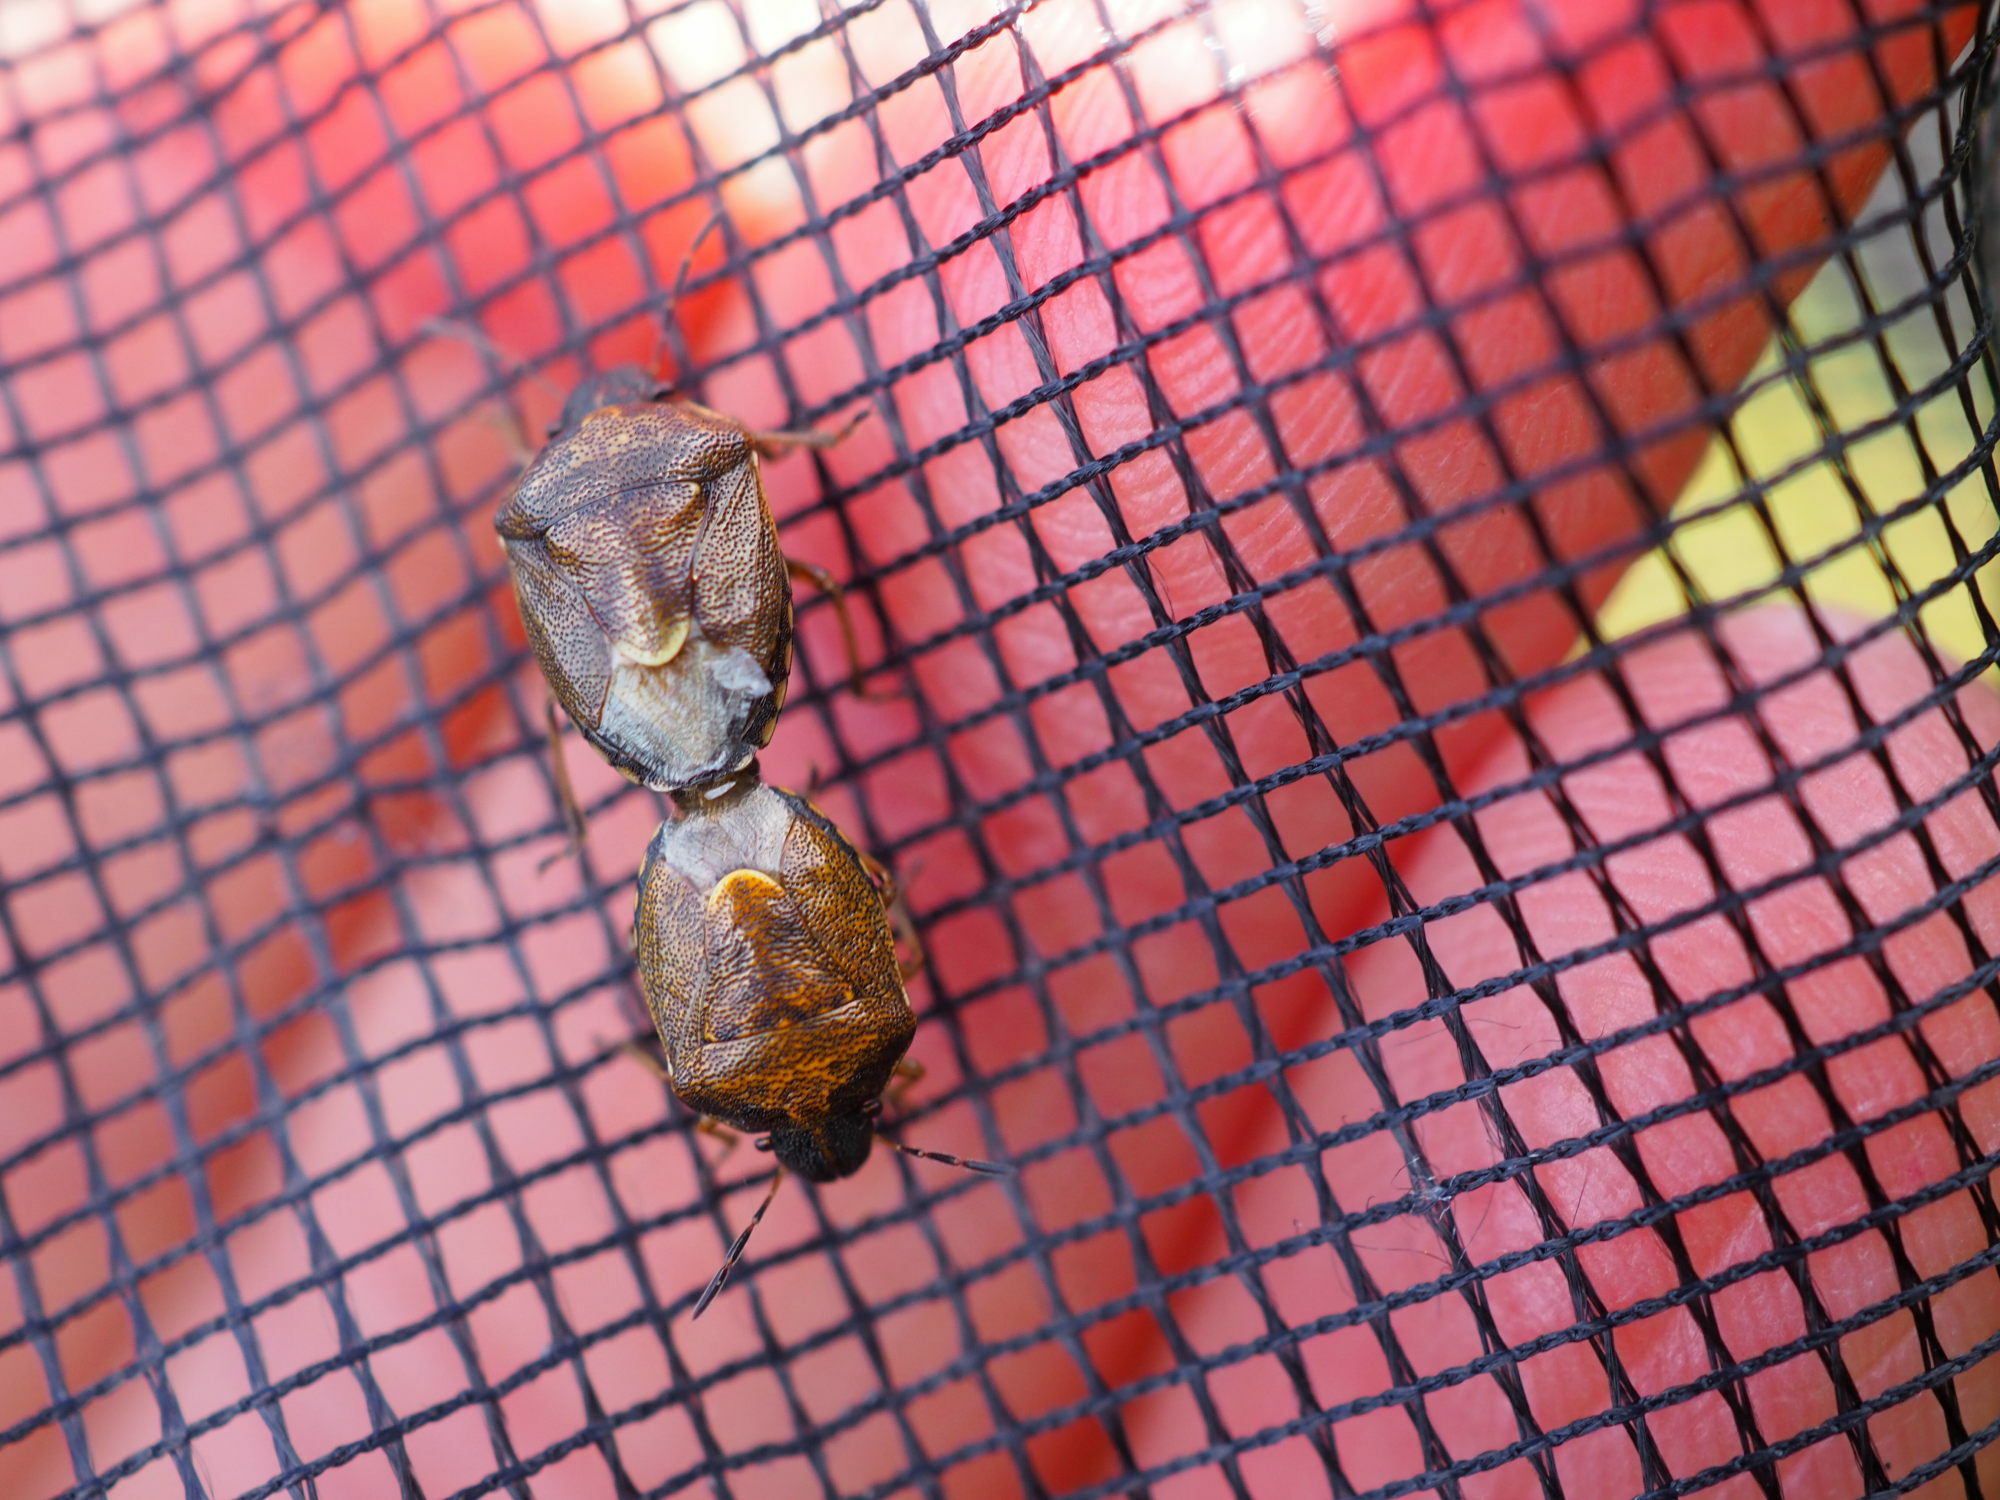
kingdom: Animalia
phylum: Arthropoda
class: Insecta
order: Hemiptera
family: Pentatomidae
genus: Rubiconia
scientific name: Rubiconia intermedia
